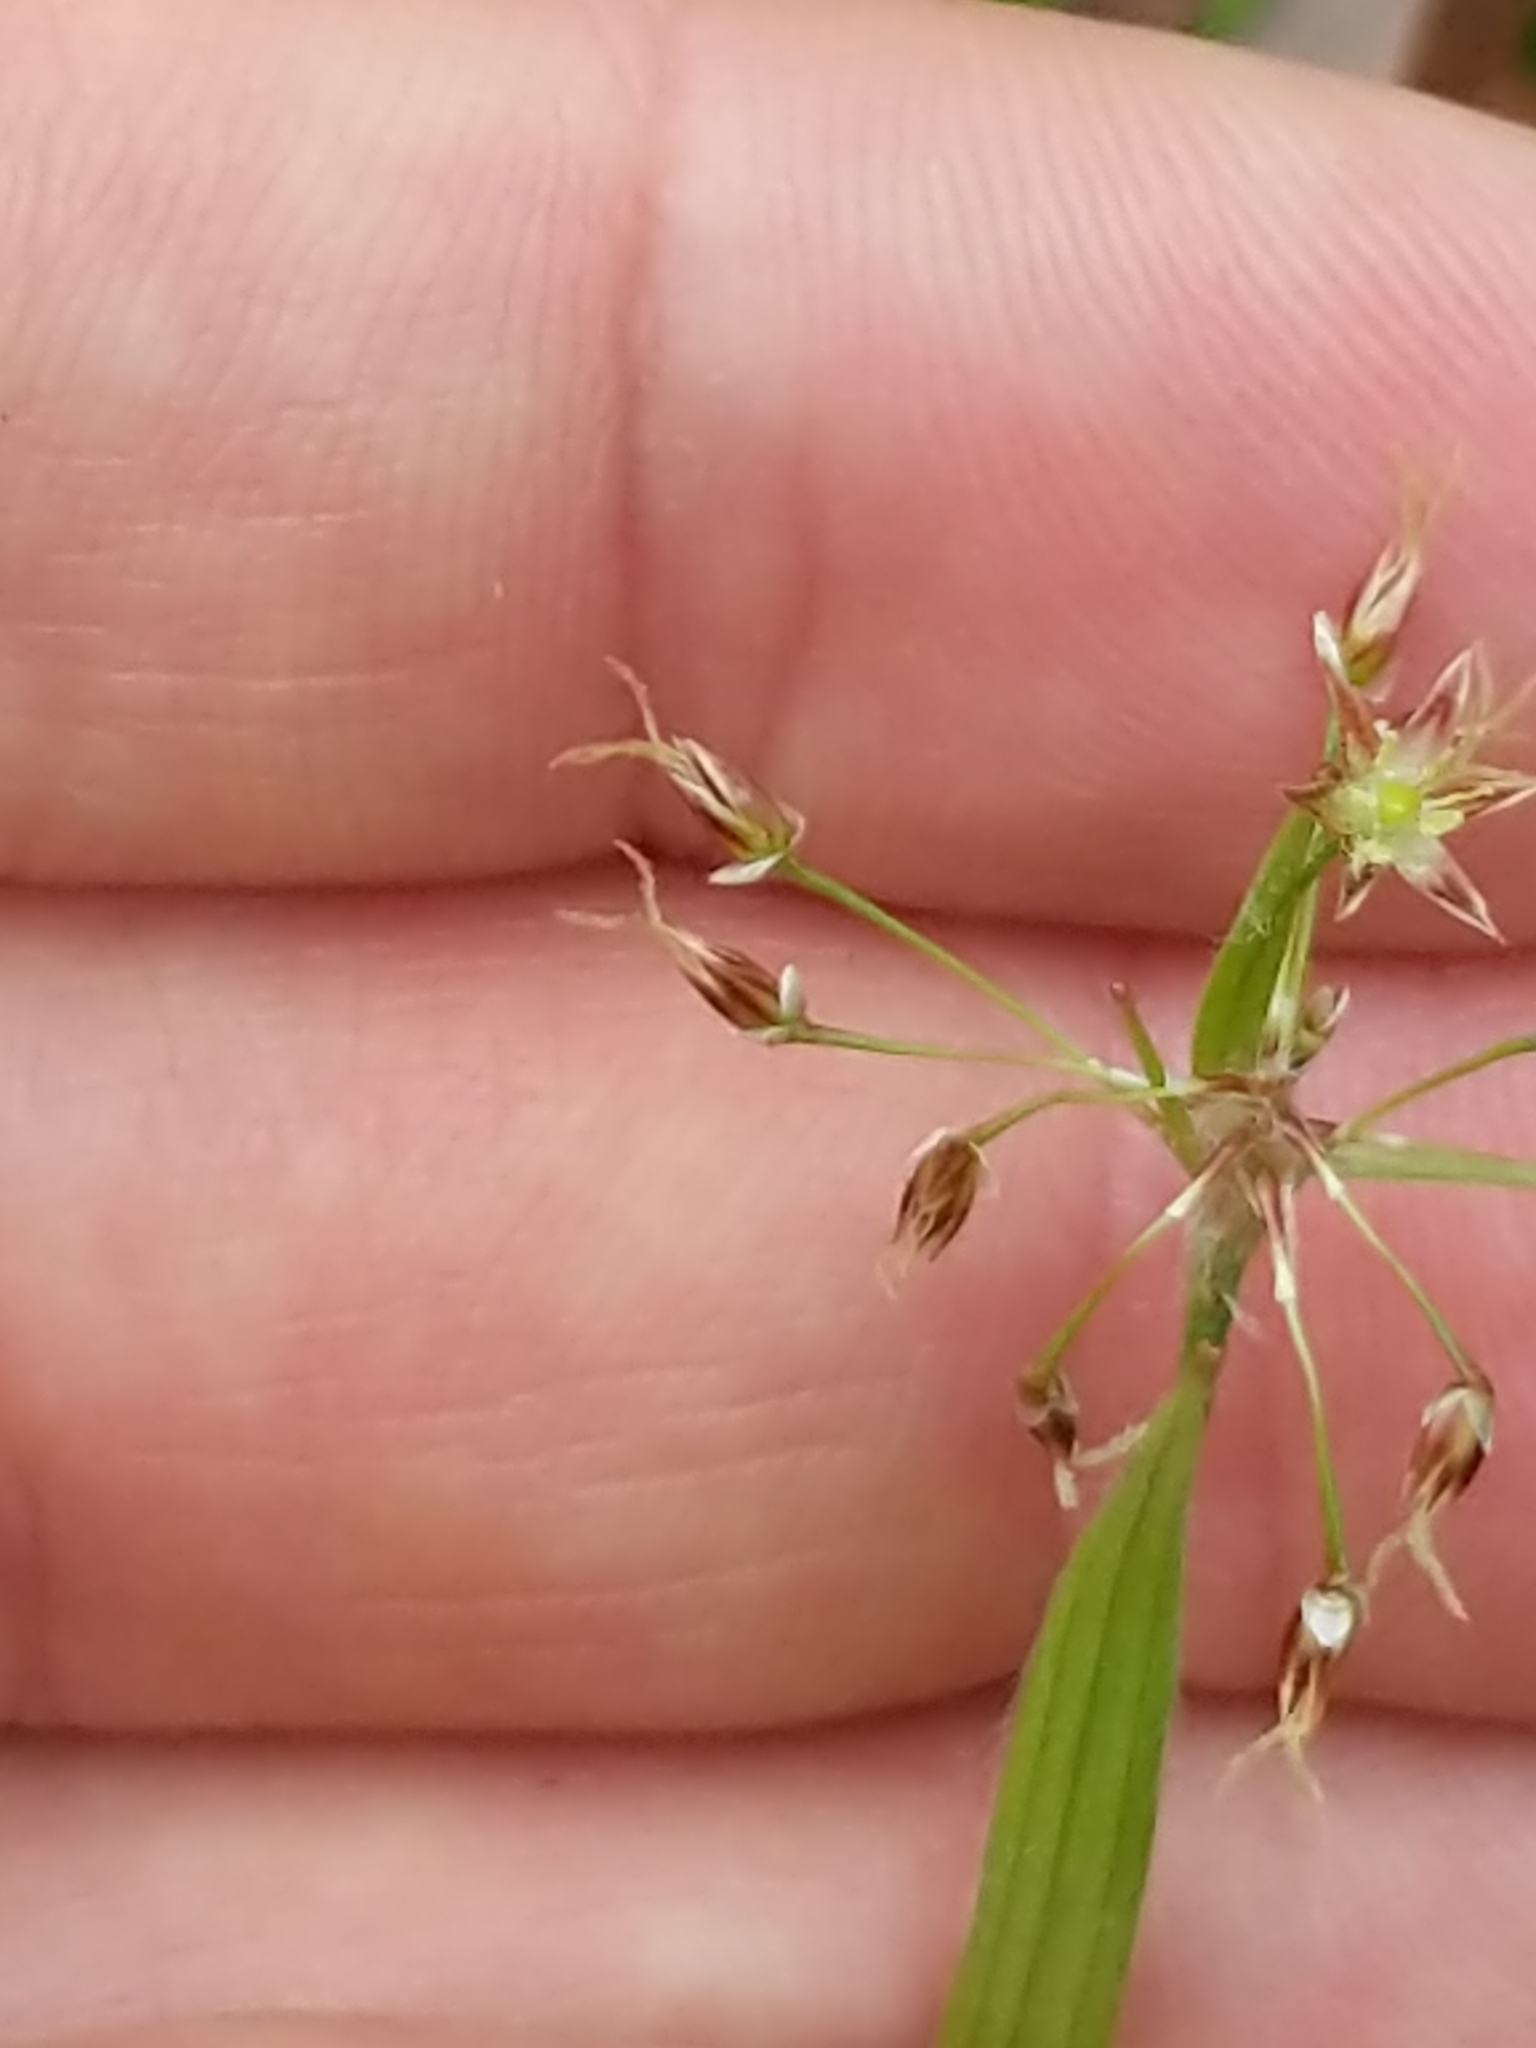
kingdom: Plantae
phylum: Tracheophyta
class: Liliopsida
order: Poales
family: Juncaceae
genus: Luzula
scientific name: Luzula acuminata
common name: Hairy woodrush
